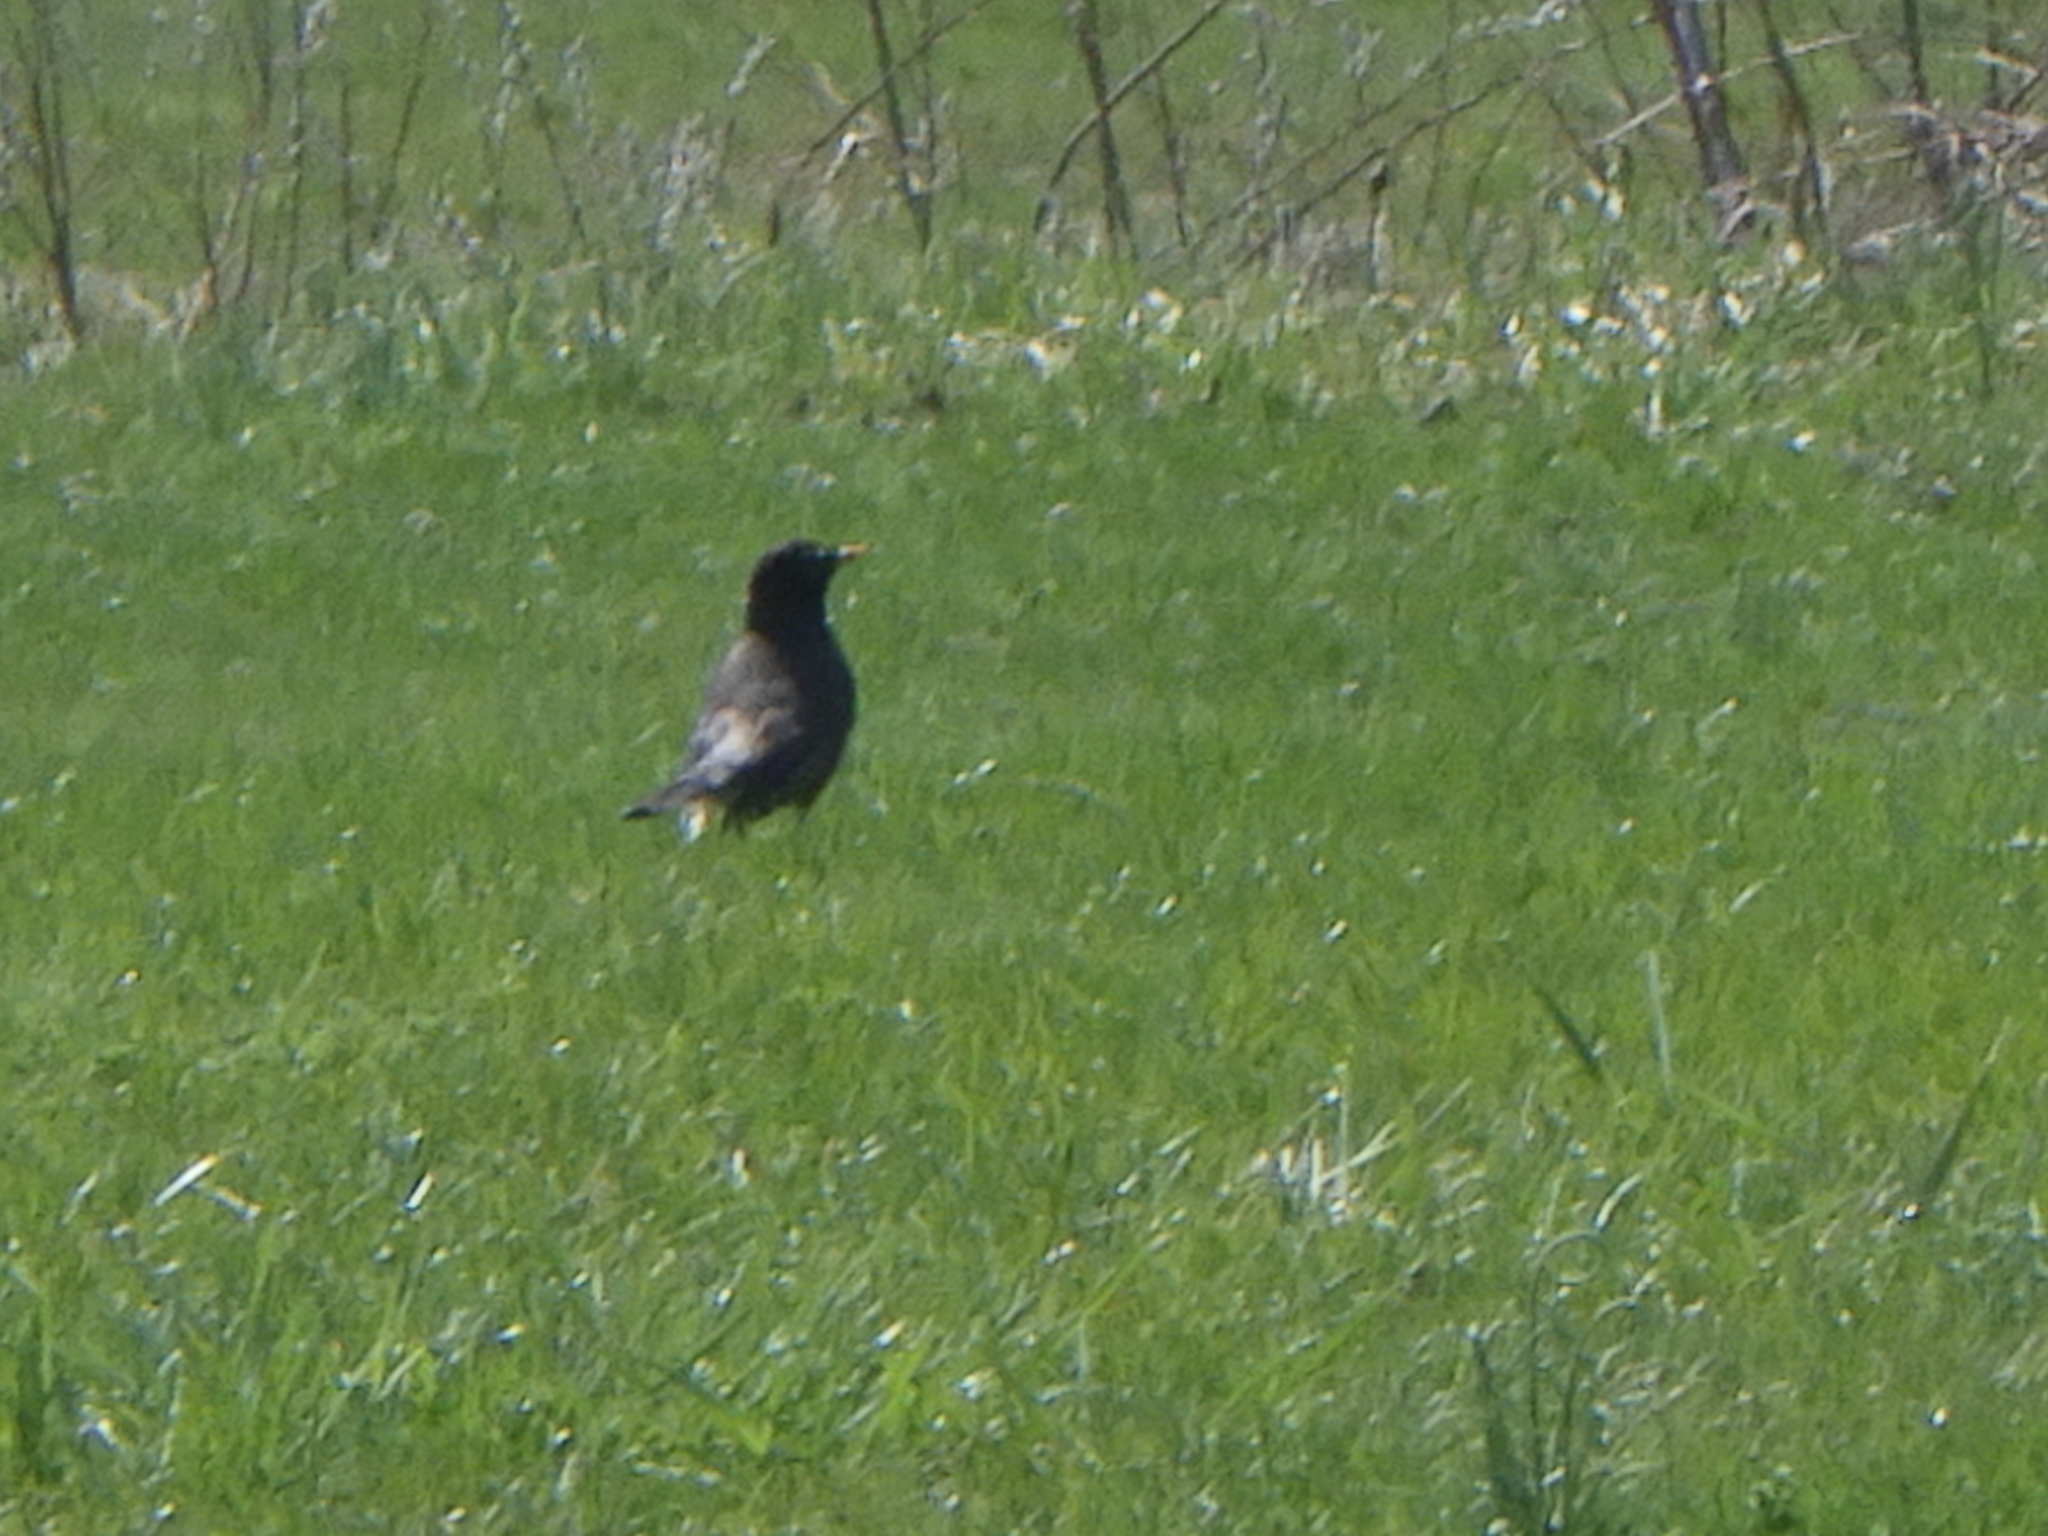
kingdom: Animalia
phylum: Chordata
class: Aves
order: Passeriformes
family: Turdidae
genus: Turdus
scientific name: Turdus migratorius
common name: American robin
